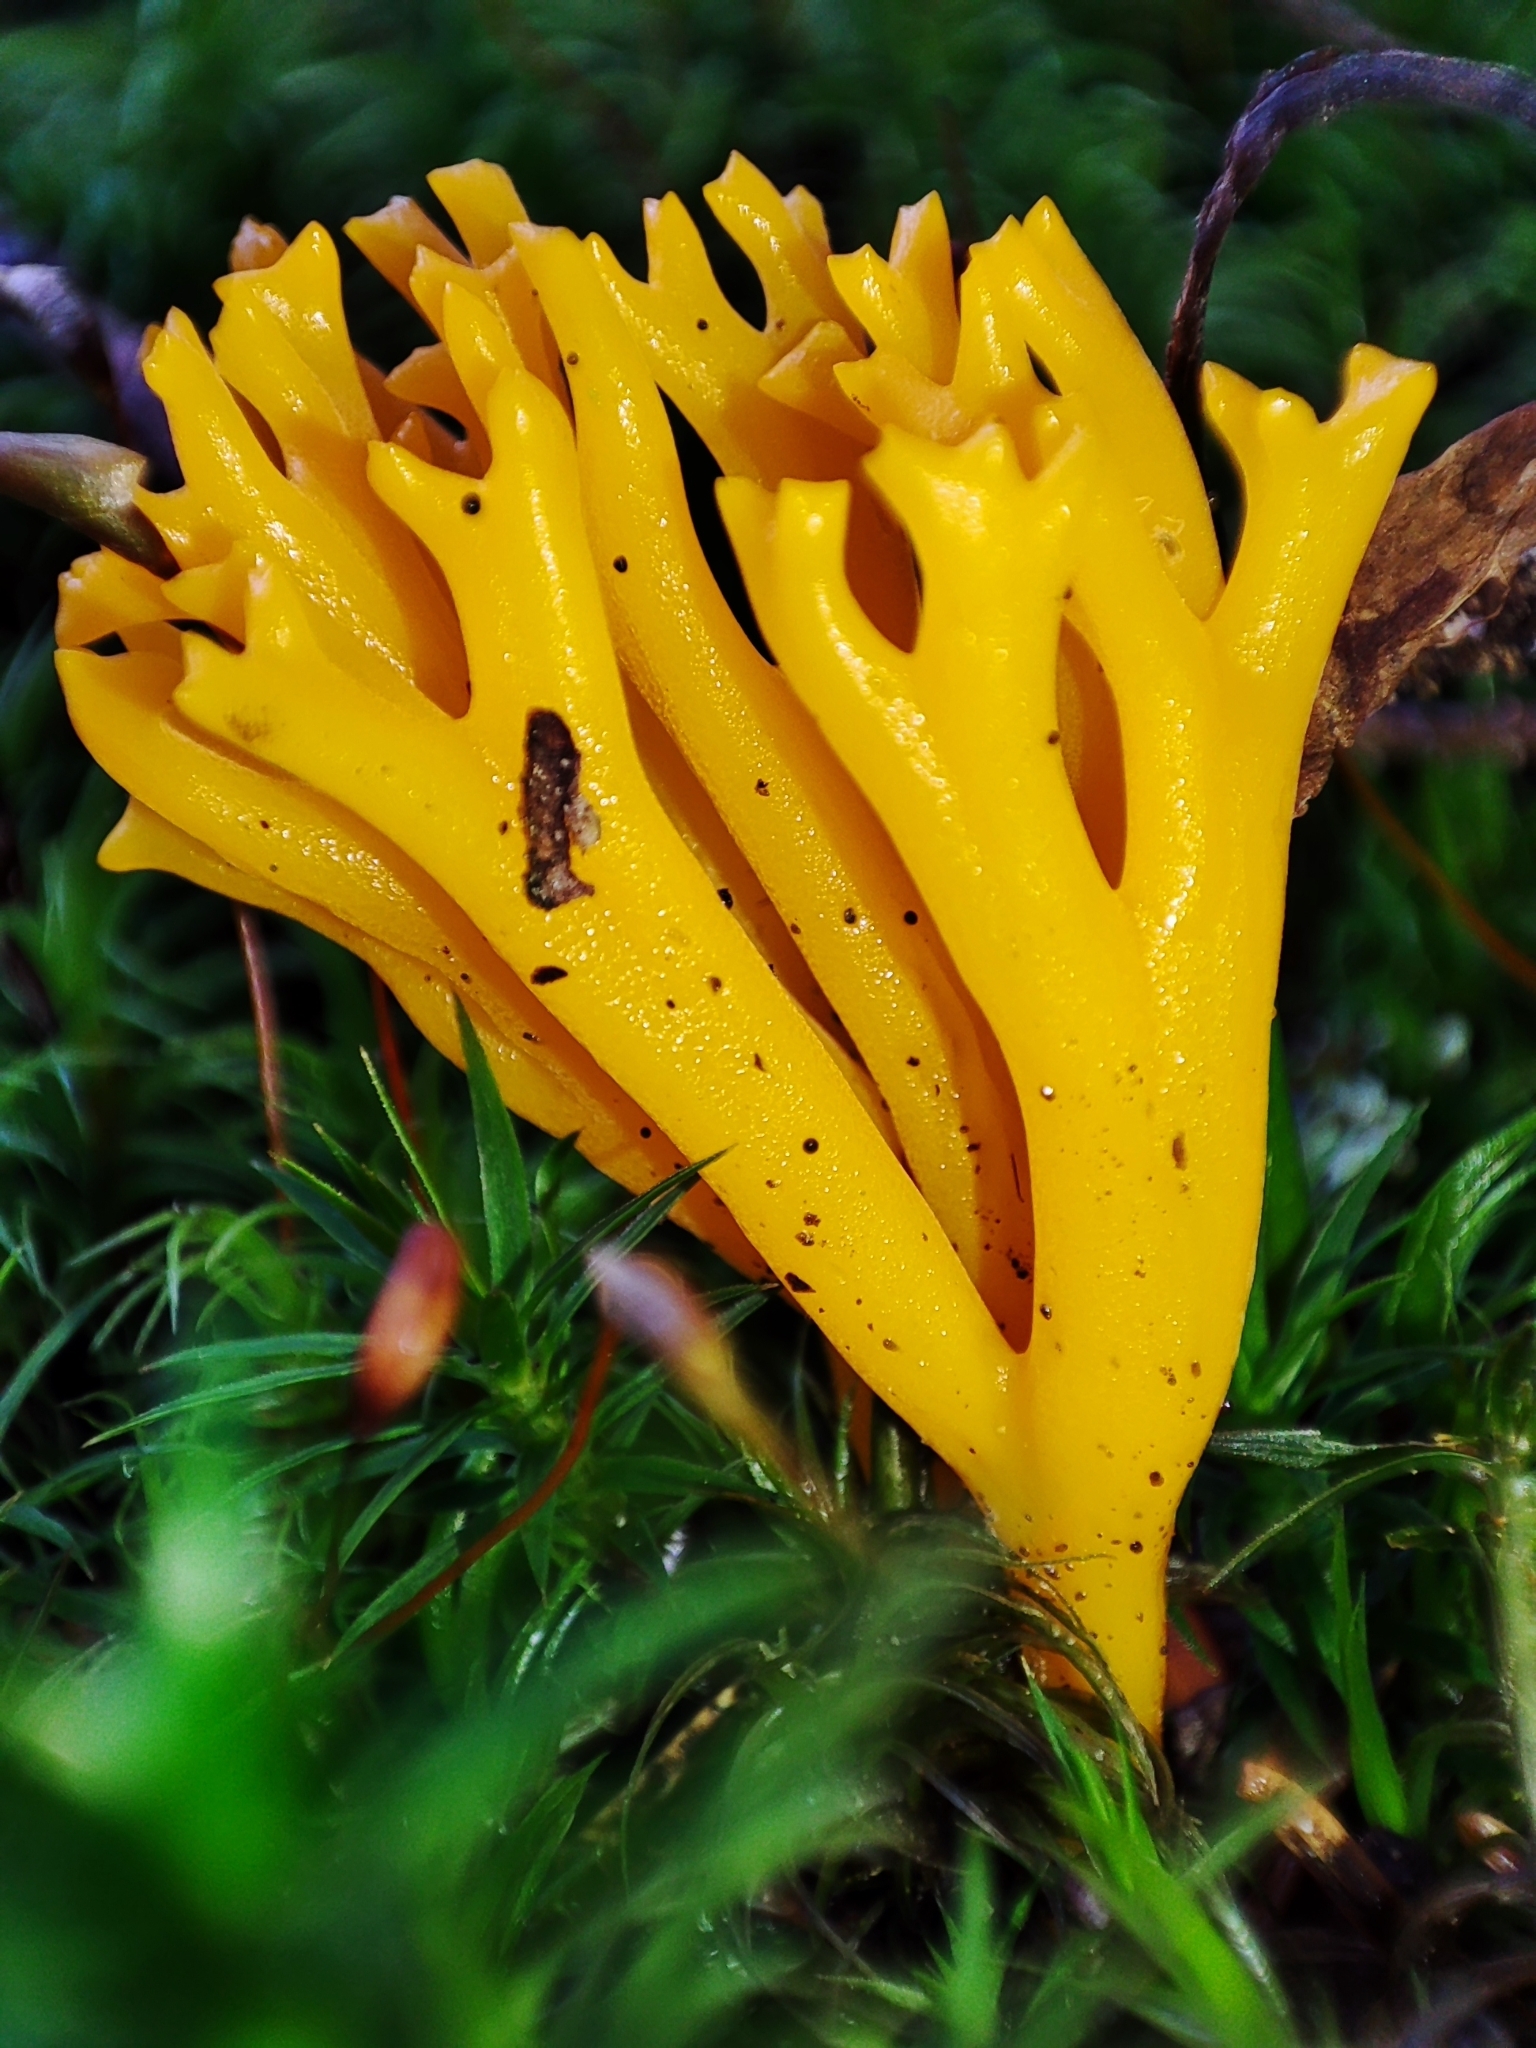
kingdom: Fungi
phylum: Basidiomycota
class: Dacrymycetes
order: Dacrymycetales
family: Dacrymycetaceae
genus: Calocera
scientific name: Calocera viscosa
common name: Yellow stagshorn
